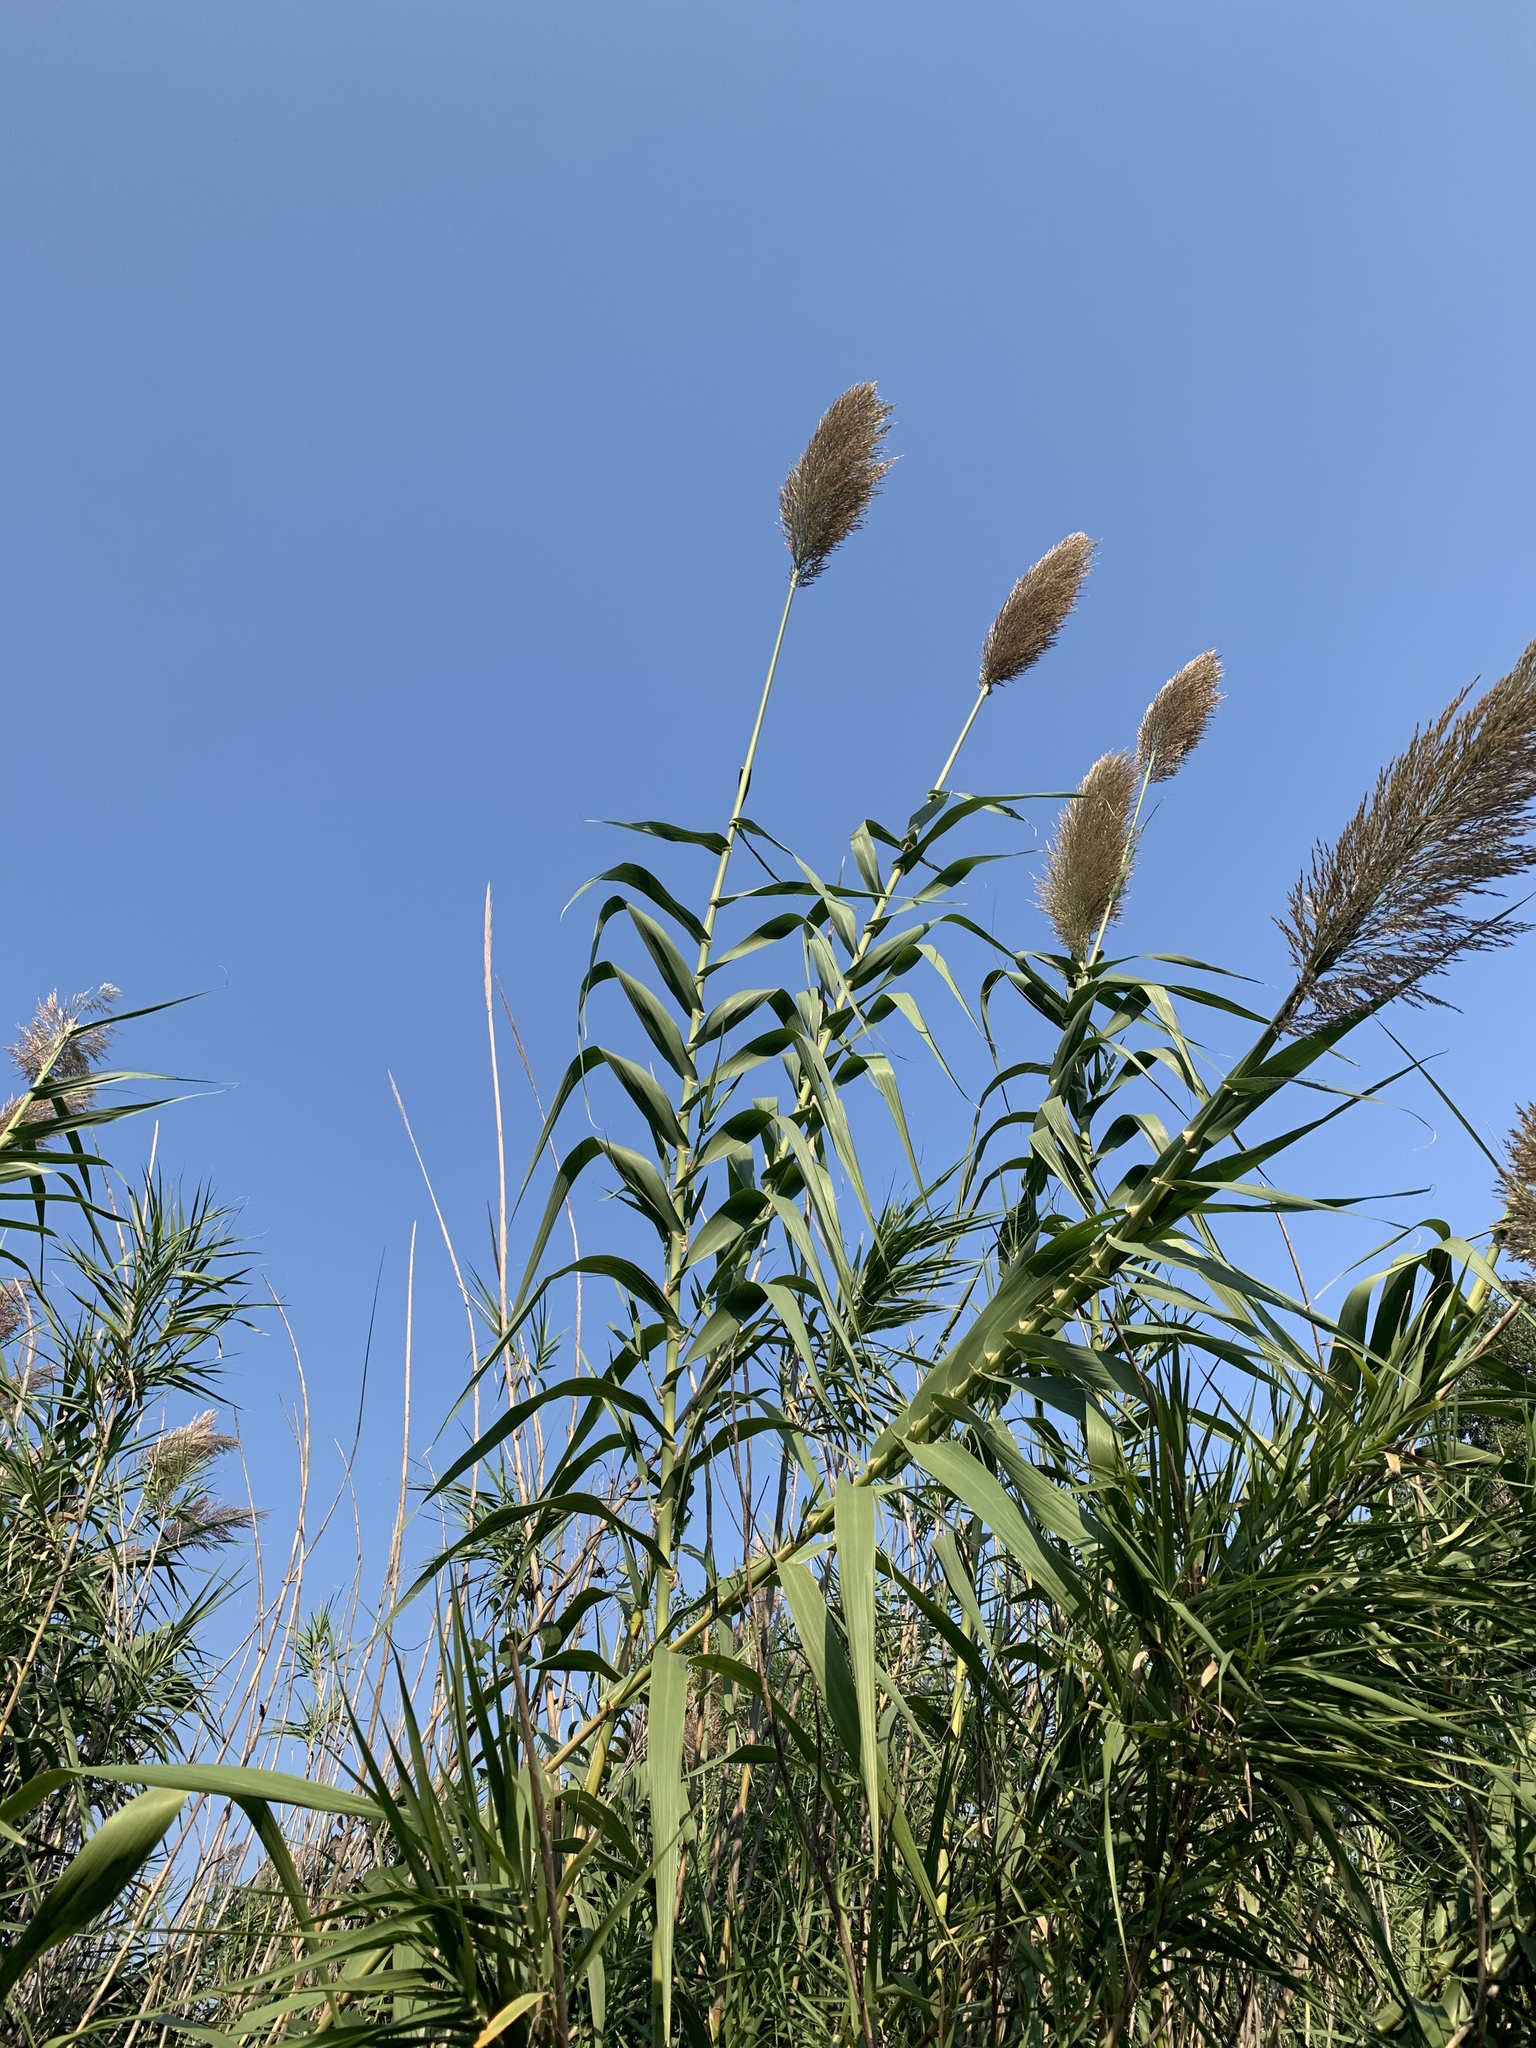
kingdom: Plantae
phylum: Tracheophyta
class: Liliopsida
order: Poales
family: Poaceae
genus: Arundo
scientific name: Arundo donax
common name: Giant reed
